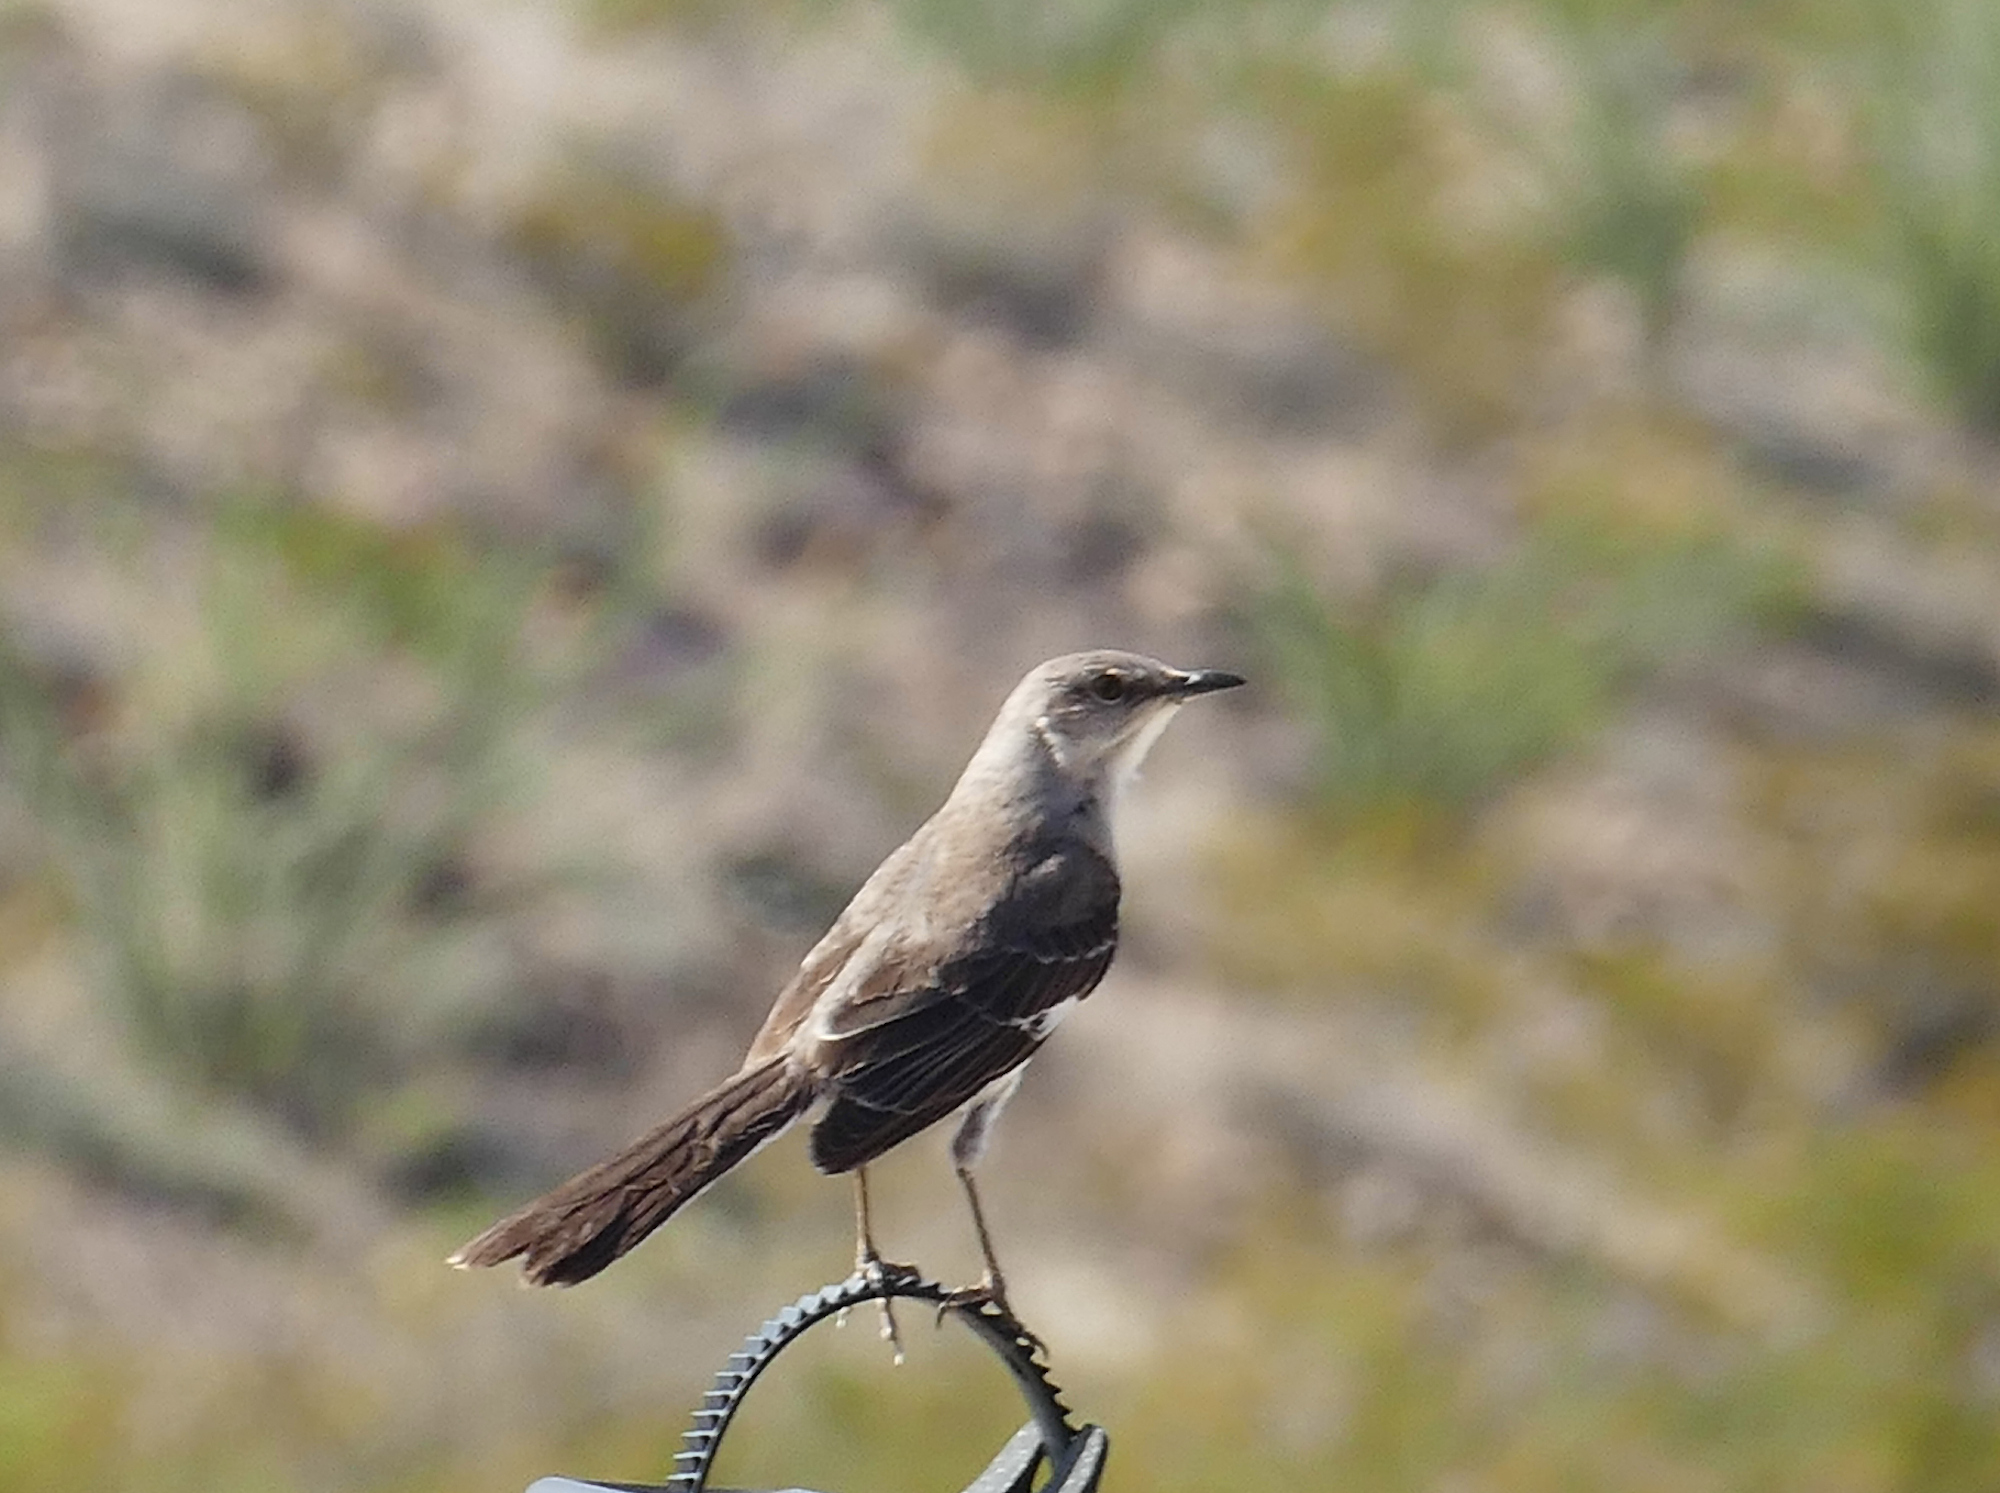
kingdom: Animalia
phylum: Chordata
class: Aves
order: Passeriformes
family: Mimidae
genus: Mimus
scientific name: Mimus polyglottos
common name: Northern mockingbird
